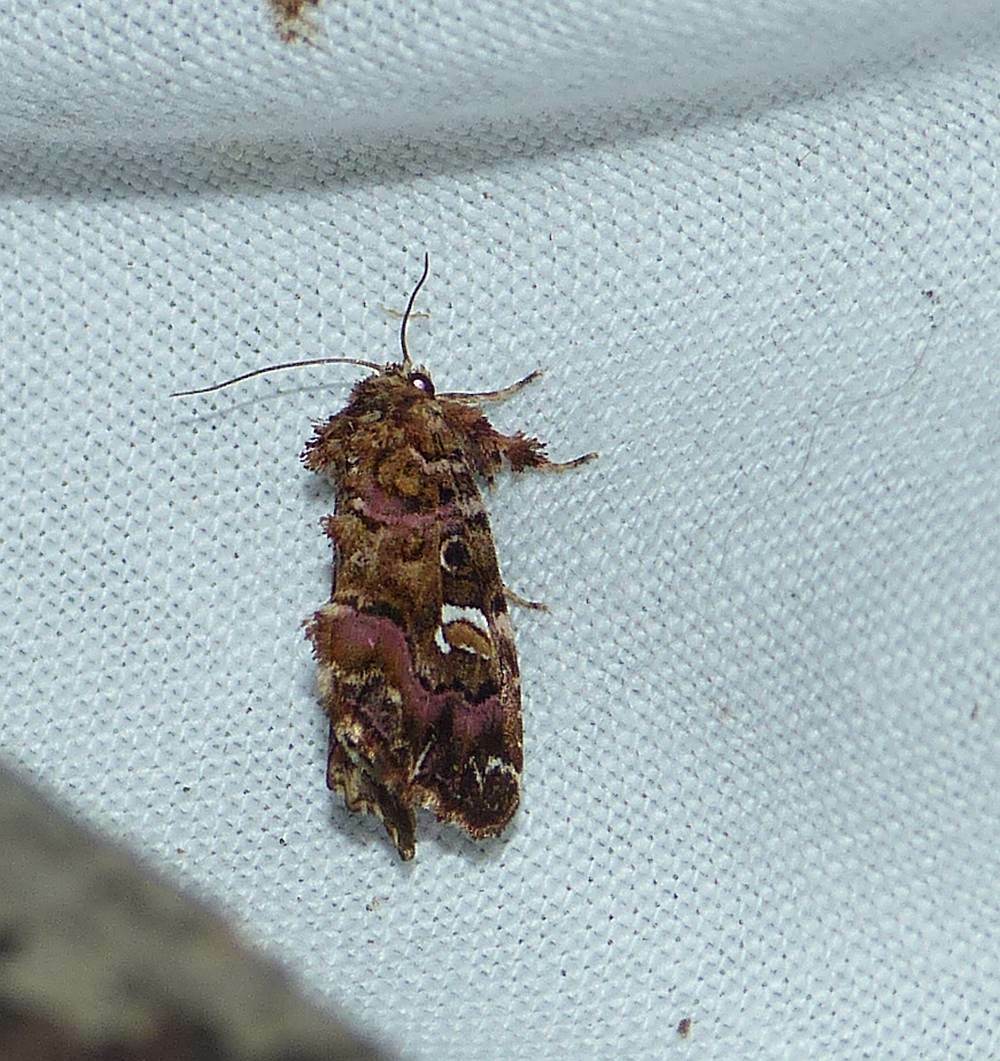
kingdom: Animalia
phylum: Arthropoda
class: Insecta
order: Lepidoptera
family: Noctuidae
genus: Callopistria
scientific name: Callopistria mollissima
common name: Pink-shaded fern moth
